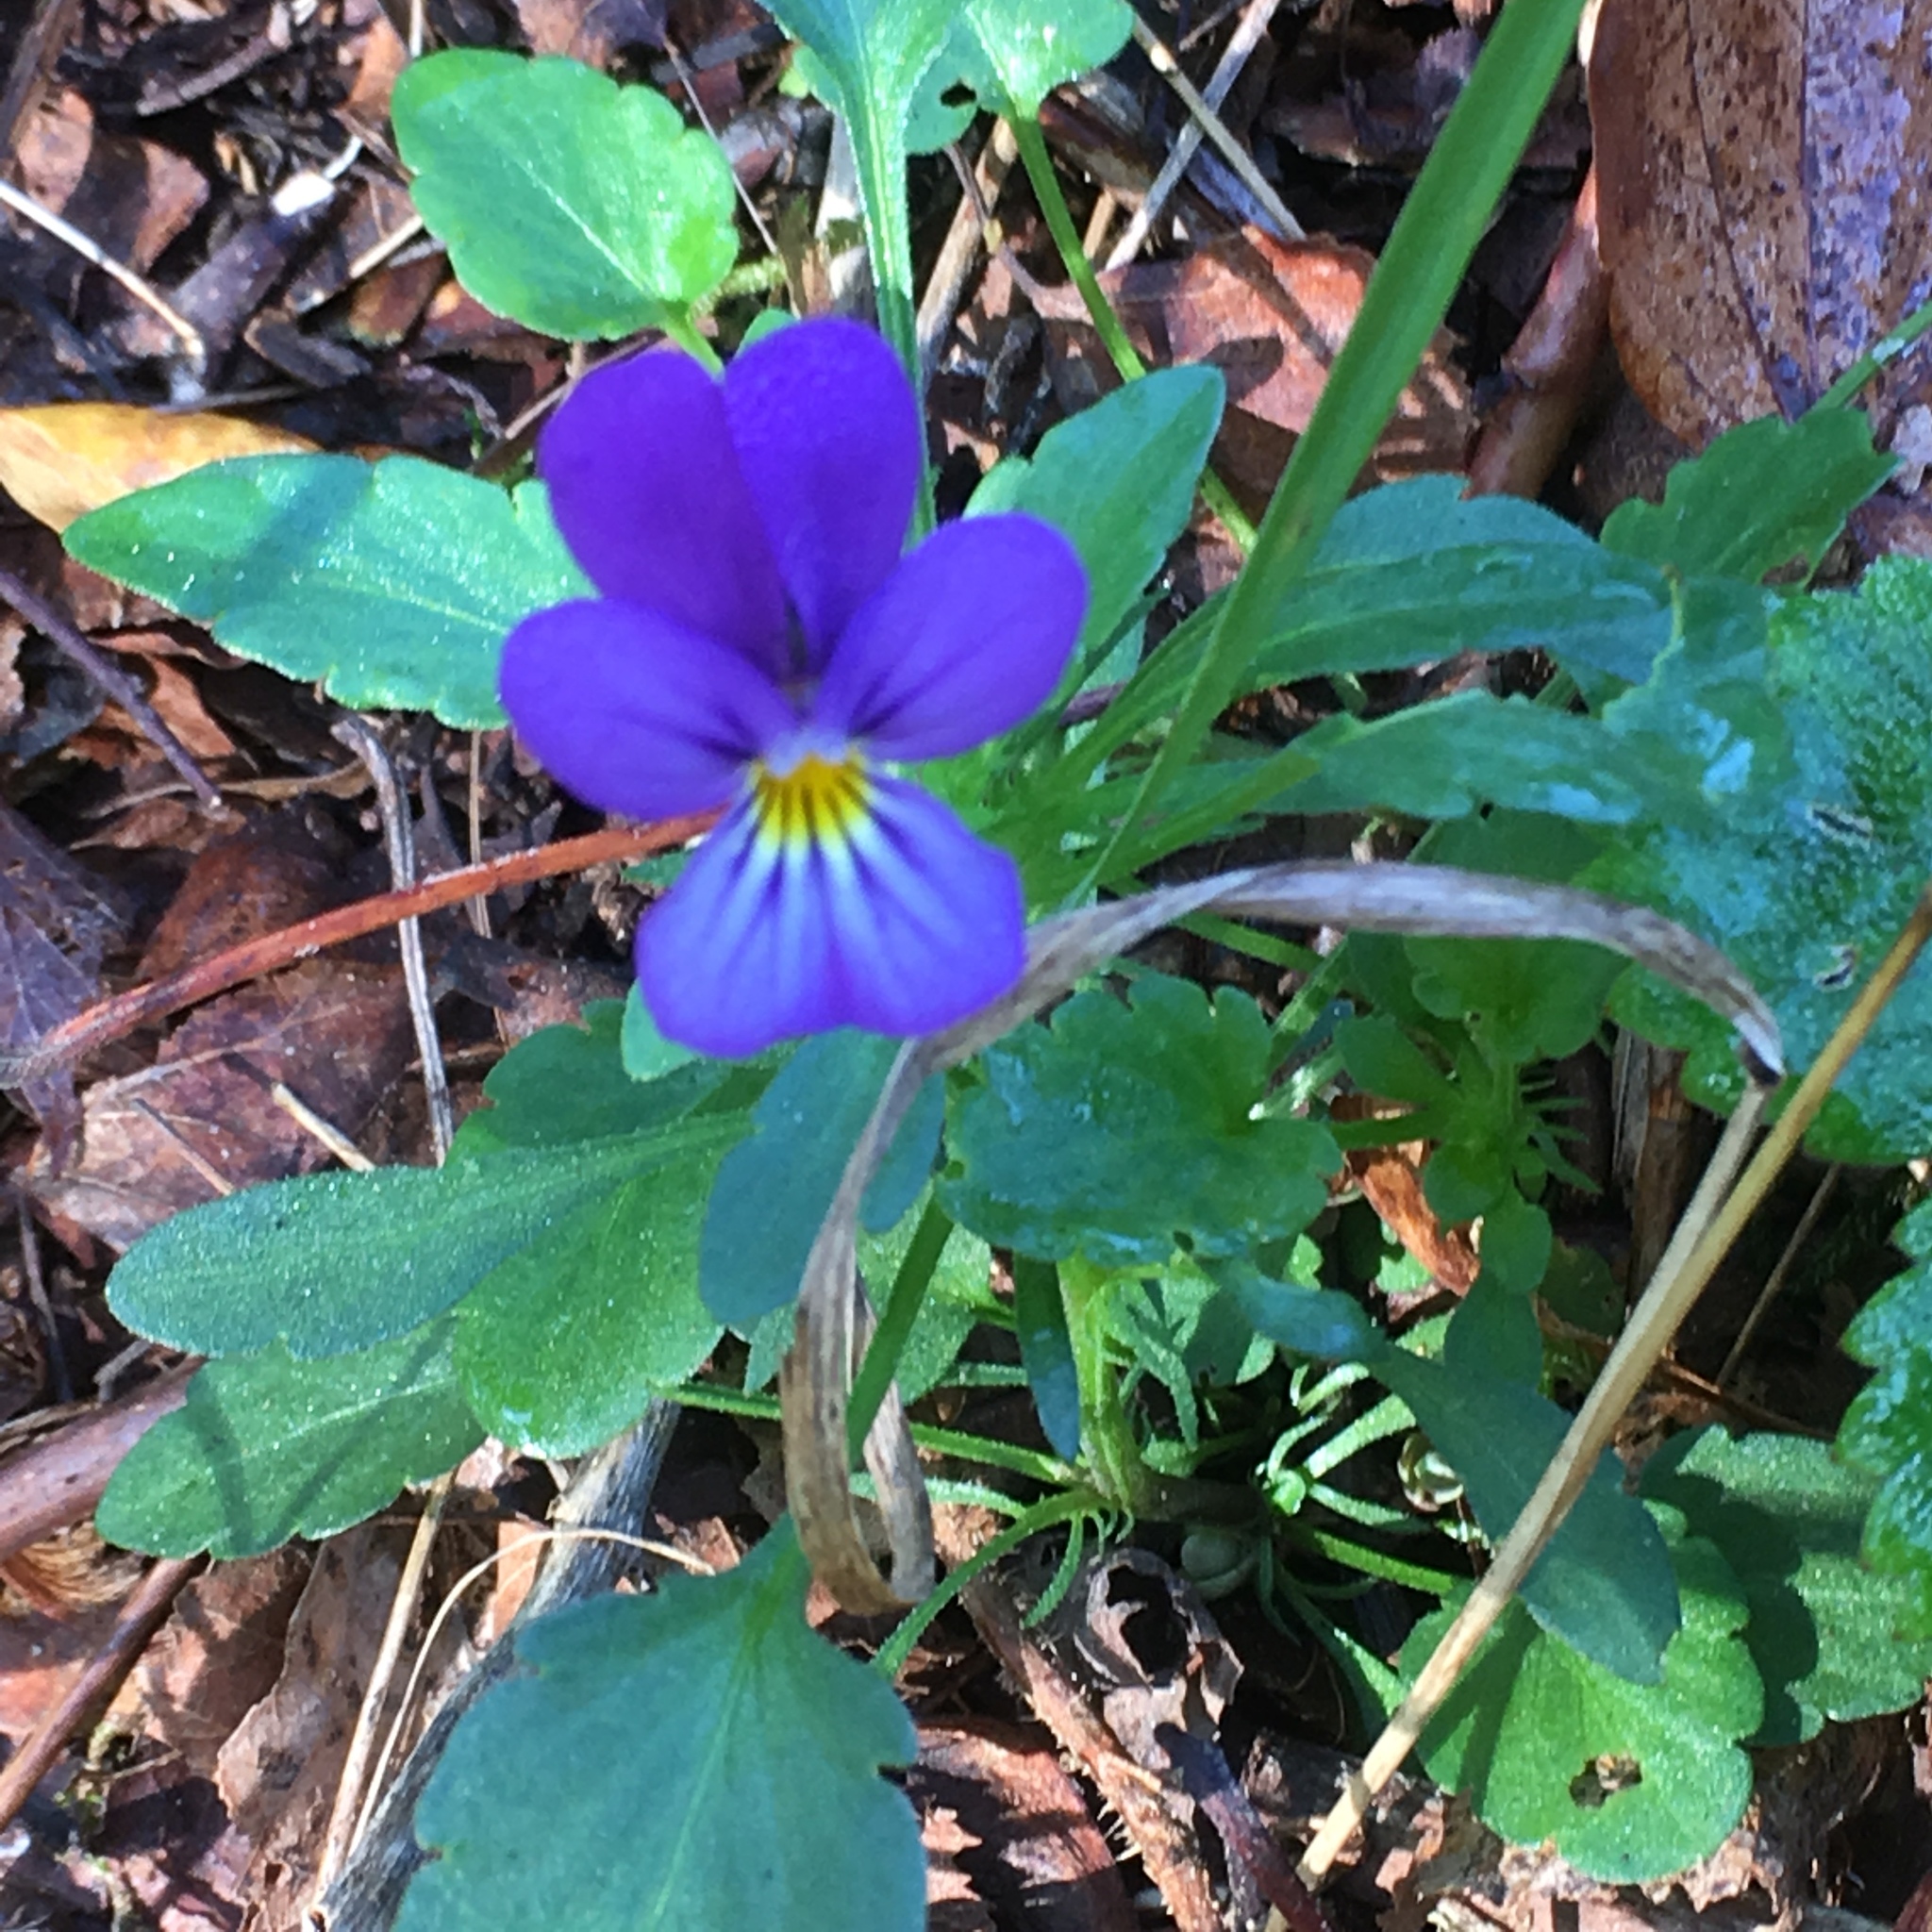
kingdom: Plantae
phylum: Tracheophyta
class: Magnoliopsida
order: Malpighiales
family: Violaceae
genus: Viola
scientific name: Viola tricolor
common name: Pansy
